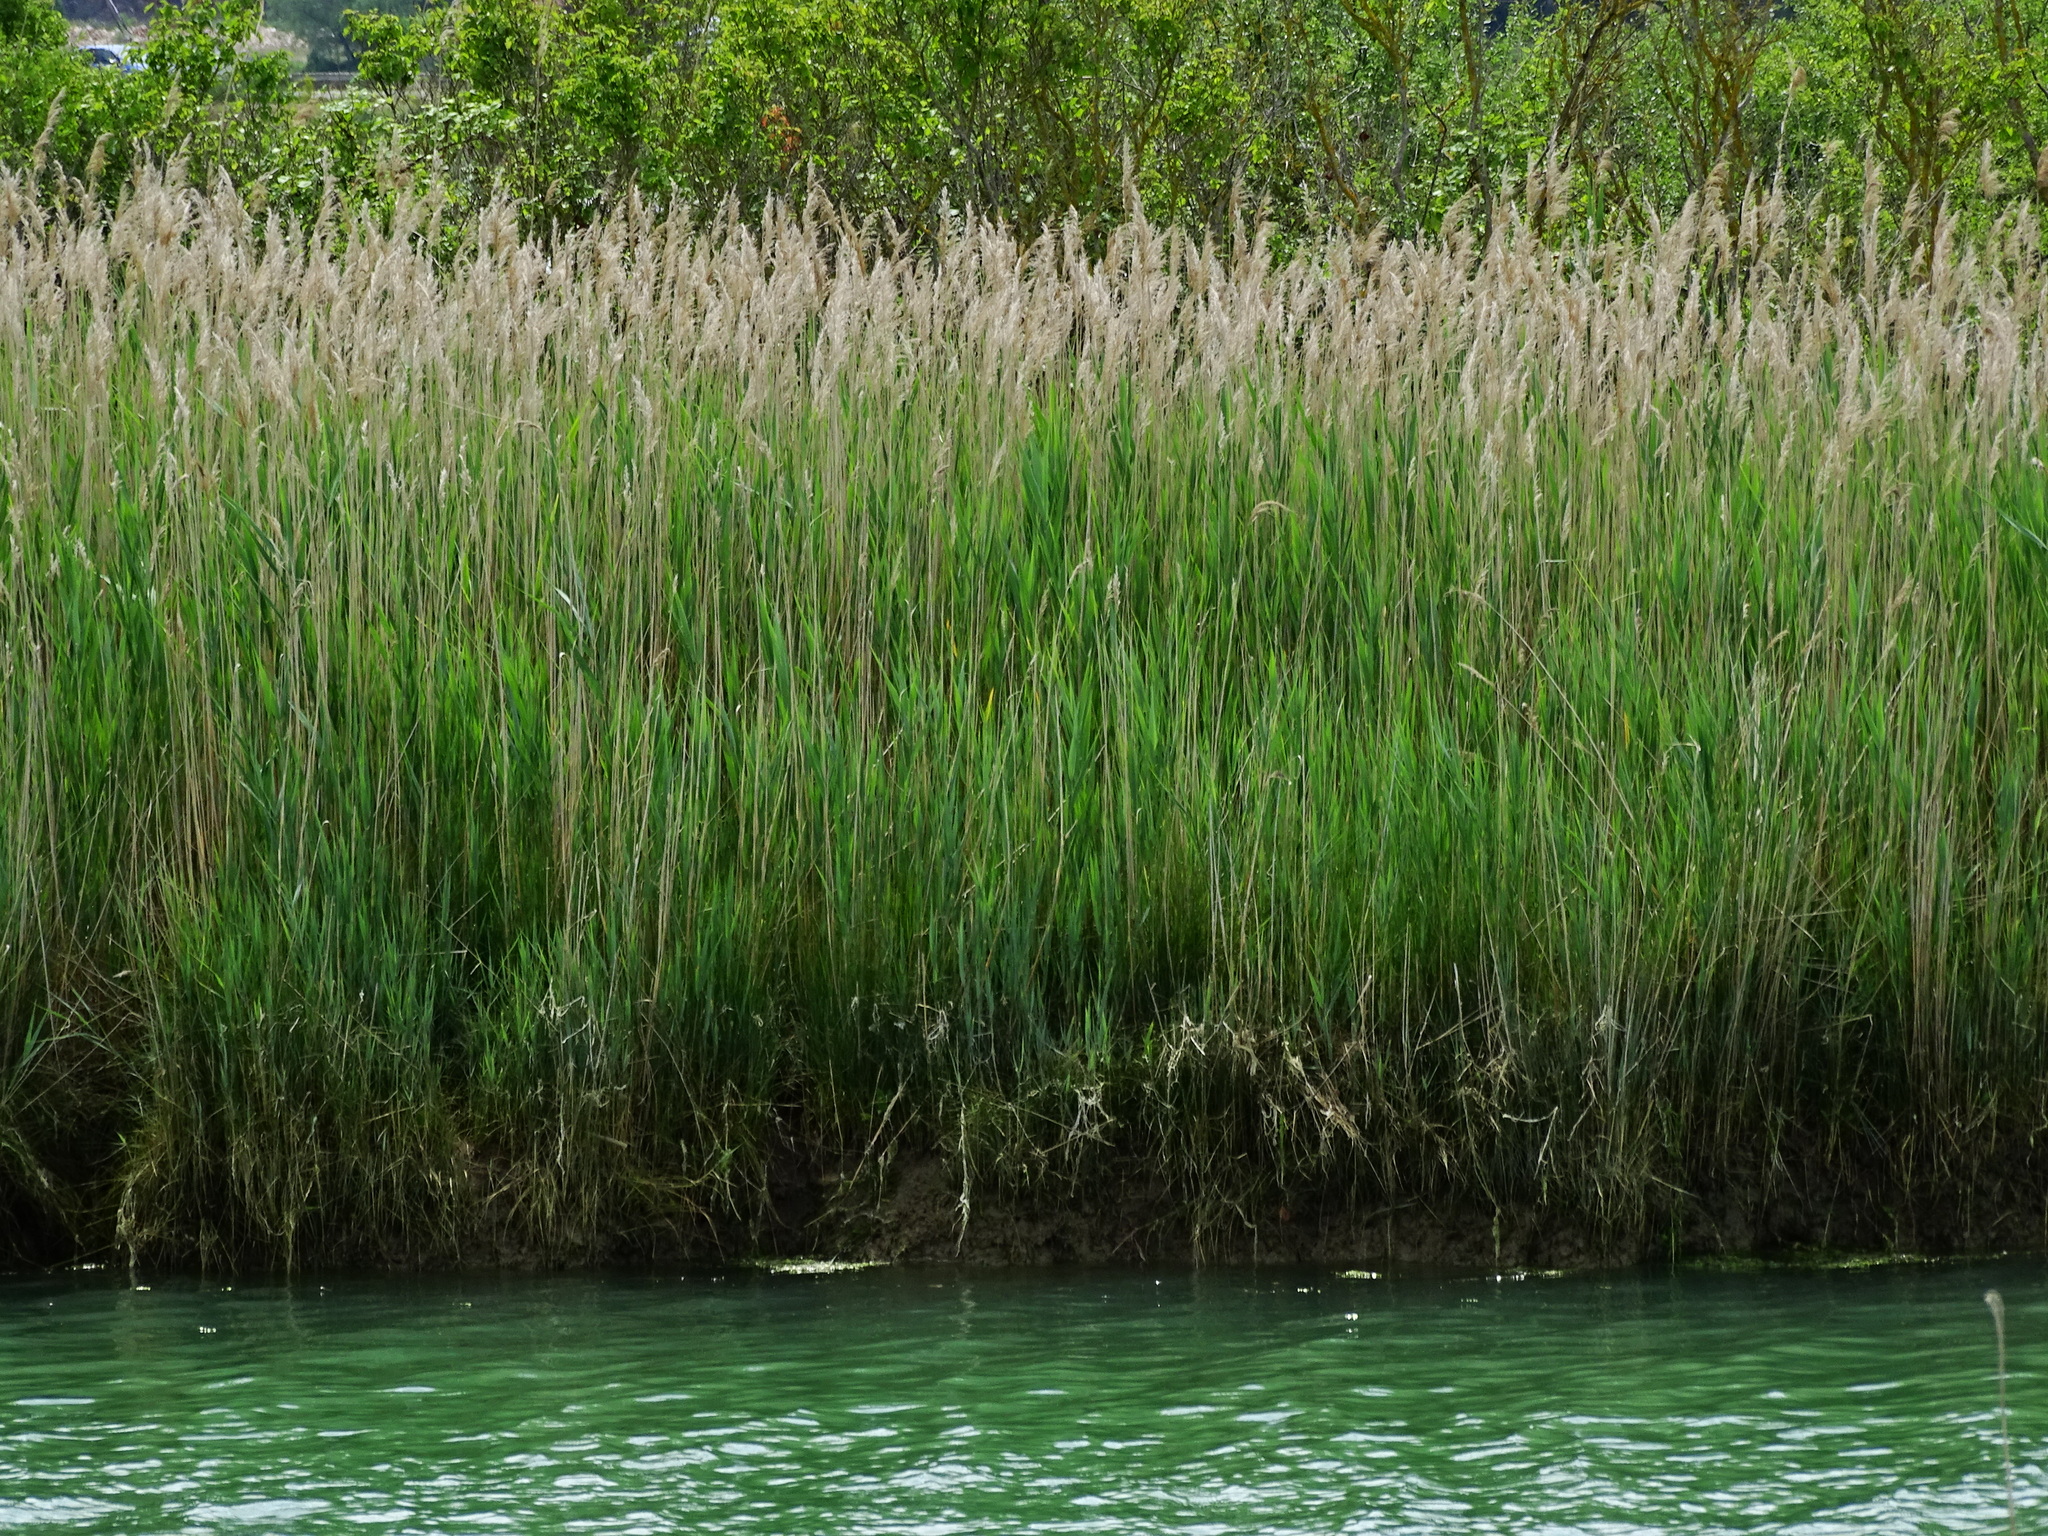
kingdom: Plantae
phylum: Tracheophyta
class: Liliopsida
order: Poales
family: Poaceae
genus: Phragmites
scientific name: Phragmites australis
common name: Common reed
